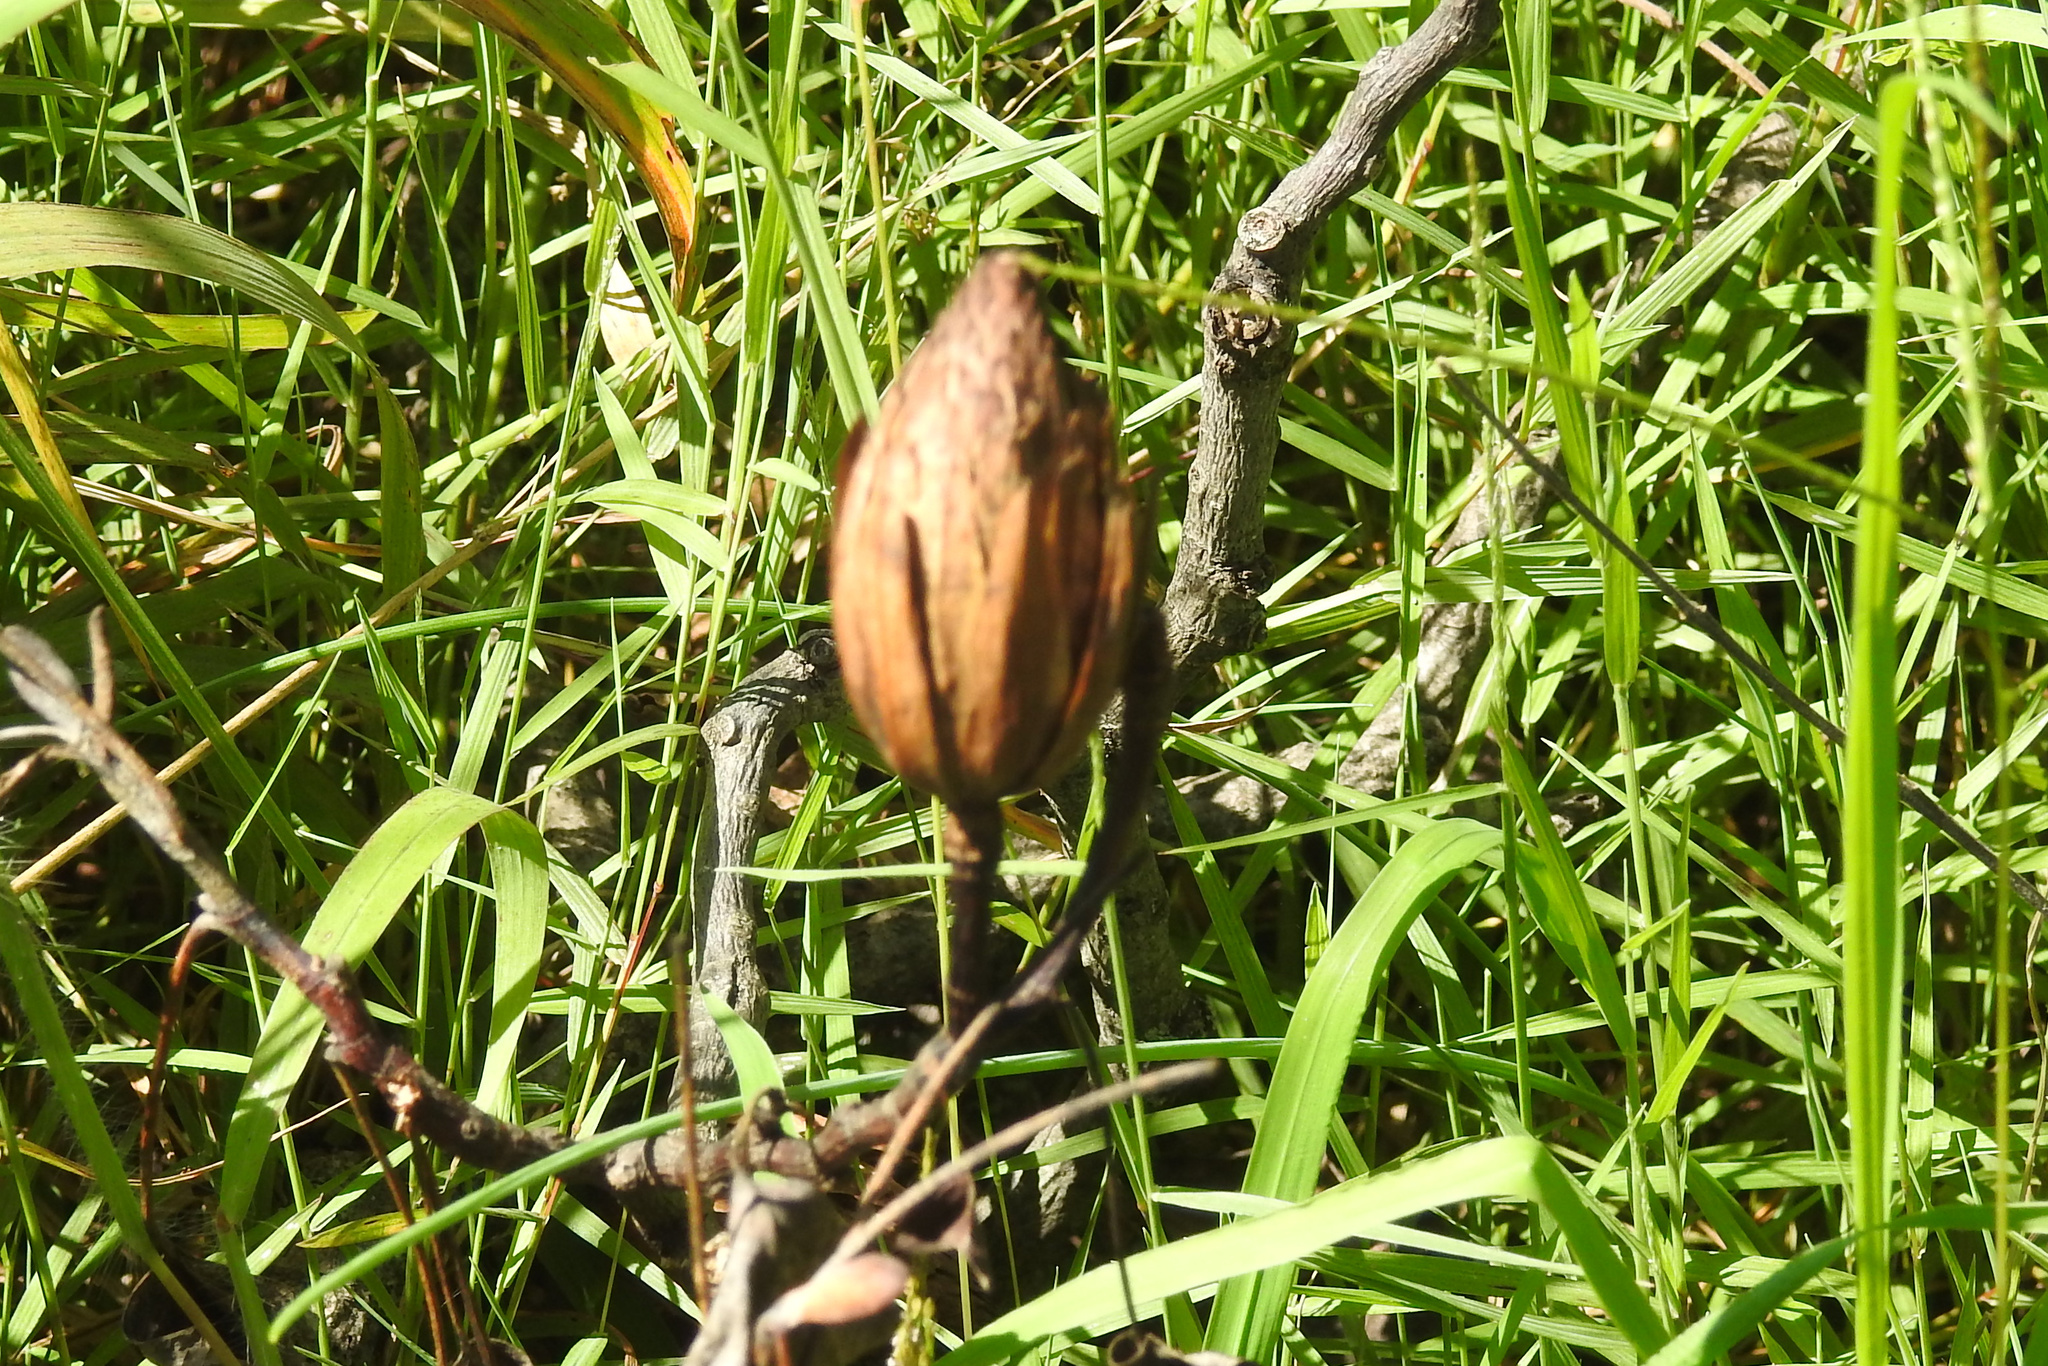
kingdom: Plantae
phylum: Tracheophyta
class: Magnoliopsida
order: Magnoliales
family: Magnoliaceae
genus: Liriodendron
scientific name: Liriodendron tulipifera
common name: Tulip tree
